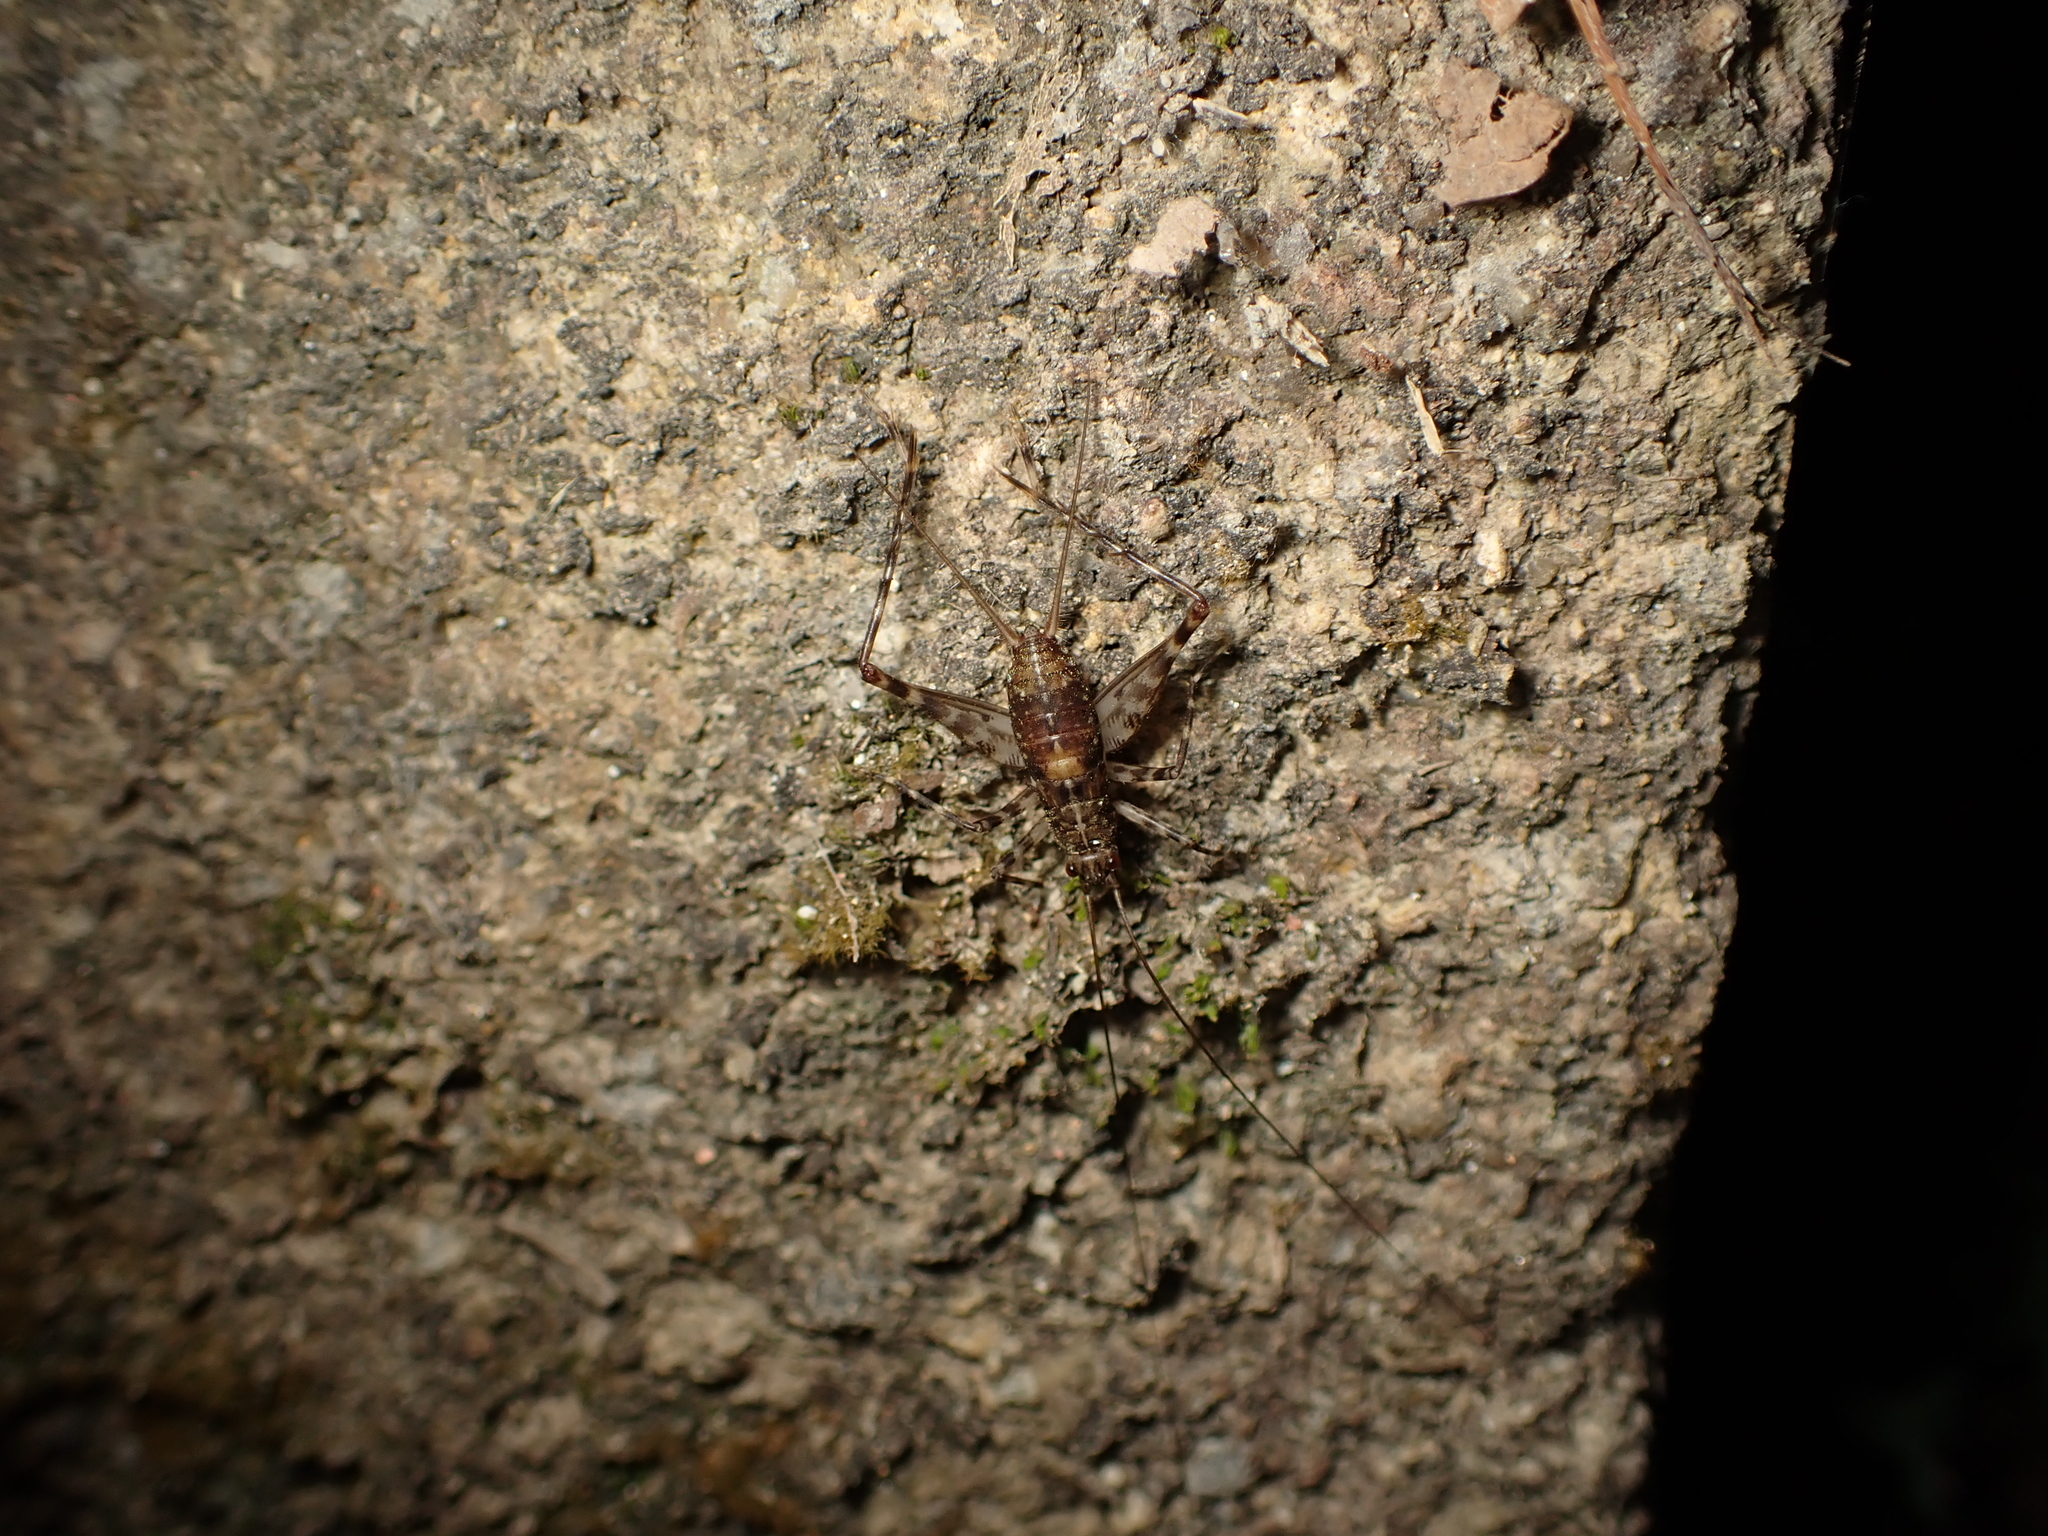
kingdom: Animalia
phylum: Arthropoda
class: Insecta
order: Orthoptera
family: Phalangopsidae
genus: Vescelia
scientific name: Vescelia pieli
